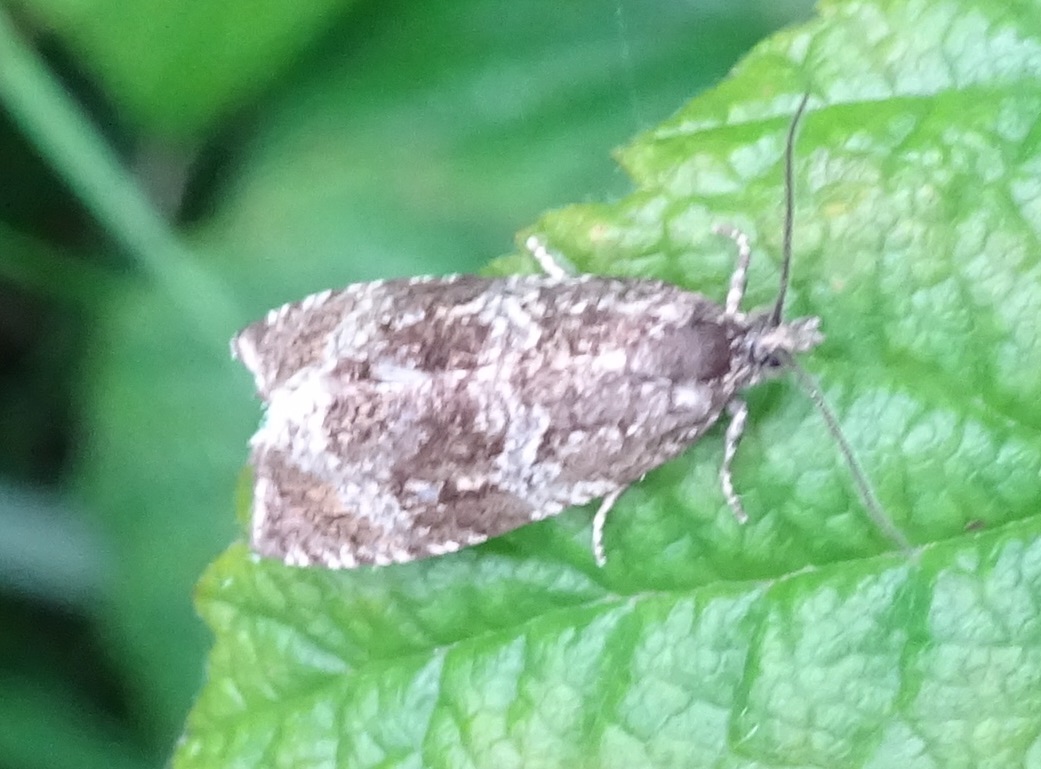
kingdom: Animalia
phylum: Arthropoda
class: Insecta
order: Lepidoptera
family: Tortricidae
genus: Syricoris
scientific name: Syricoris lacunana
